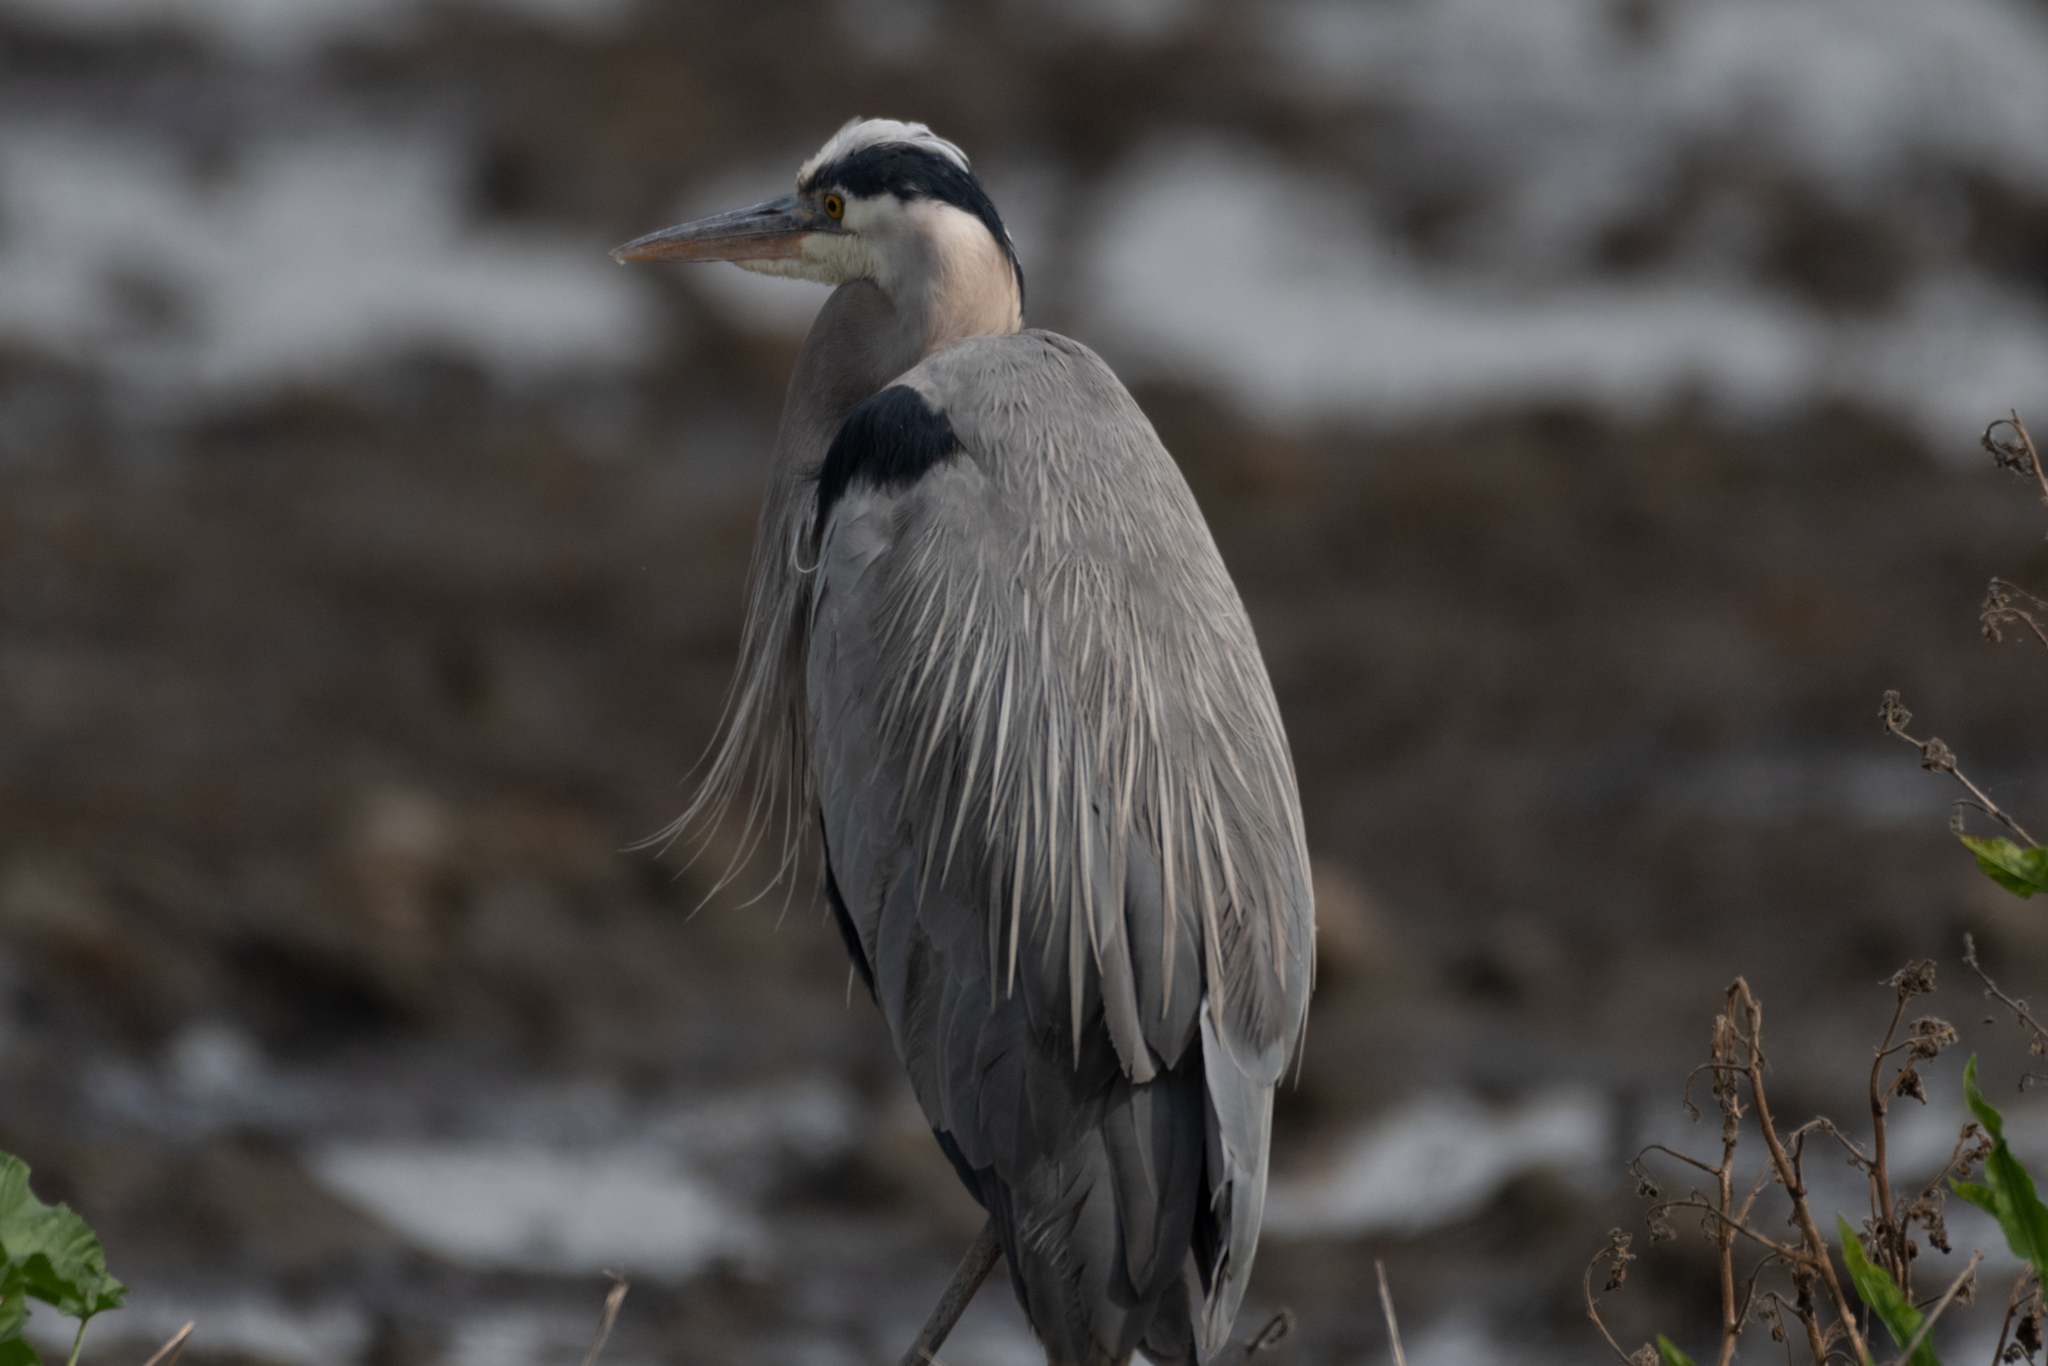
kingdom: Animalia
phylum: Chordata
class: Aves
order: Pelecaniformes
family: Ardeidae
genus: Ardea
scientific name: Ardea herodias
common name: Great blue heron
